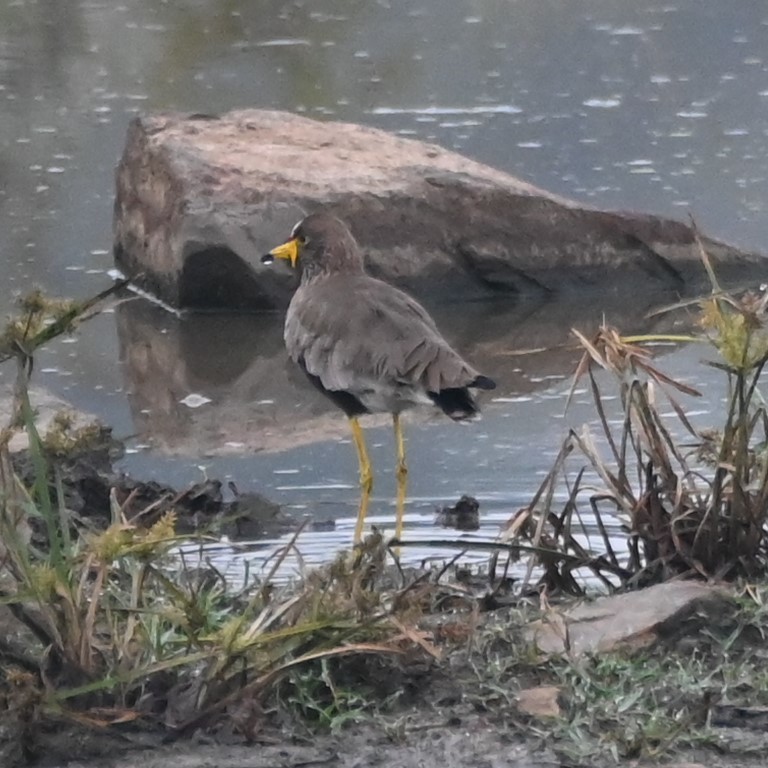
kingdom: Animalia
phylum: Chordata
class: Aves
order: Charadriiformes
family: Charadriidae
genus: Vanellus
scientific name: Vanellus senegallus
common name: African wattled lapwing
